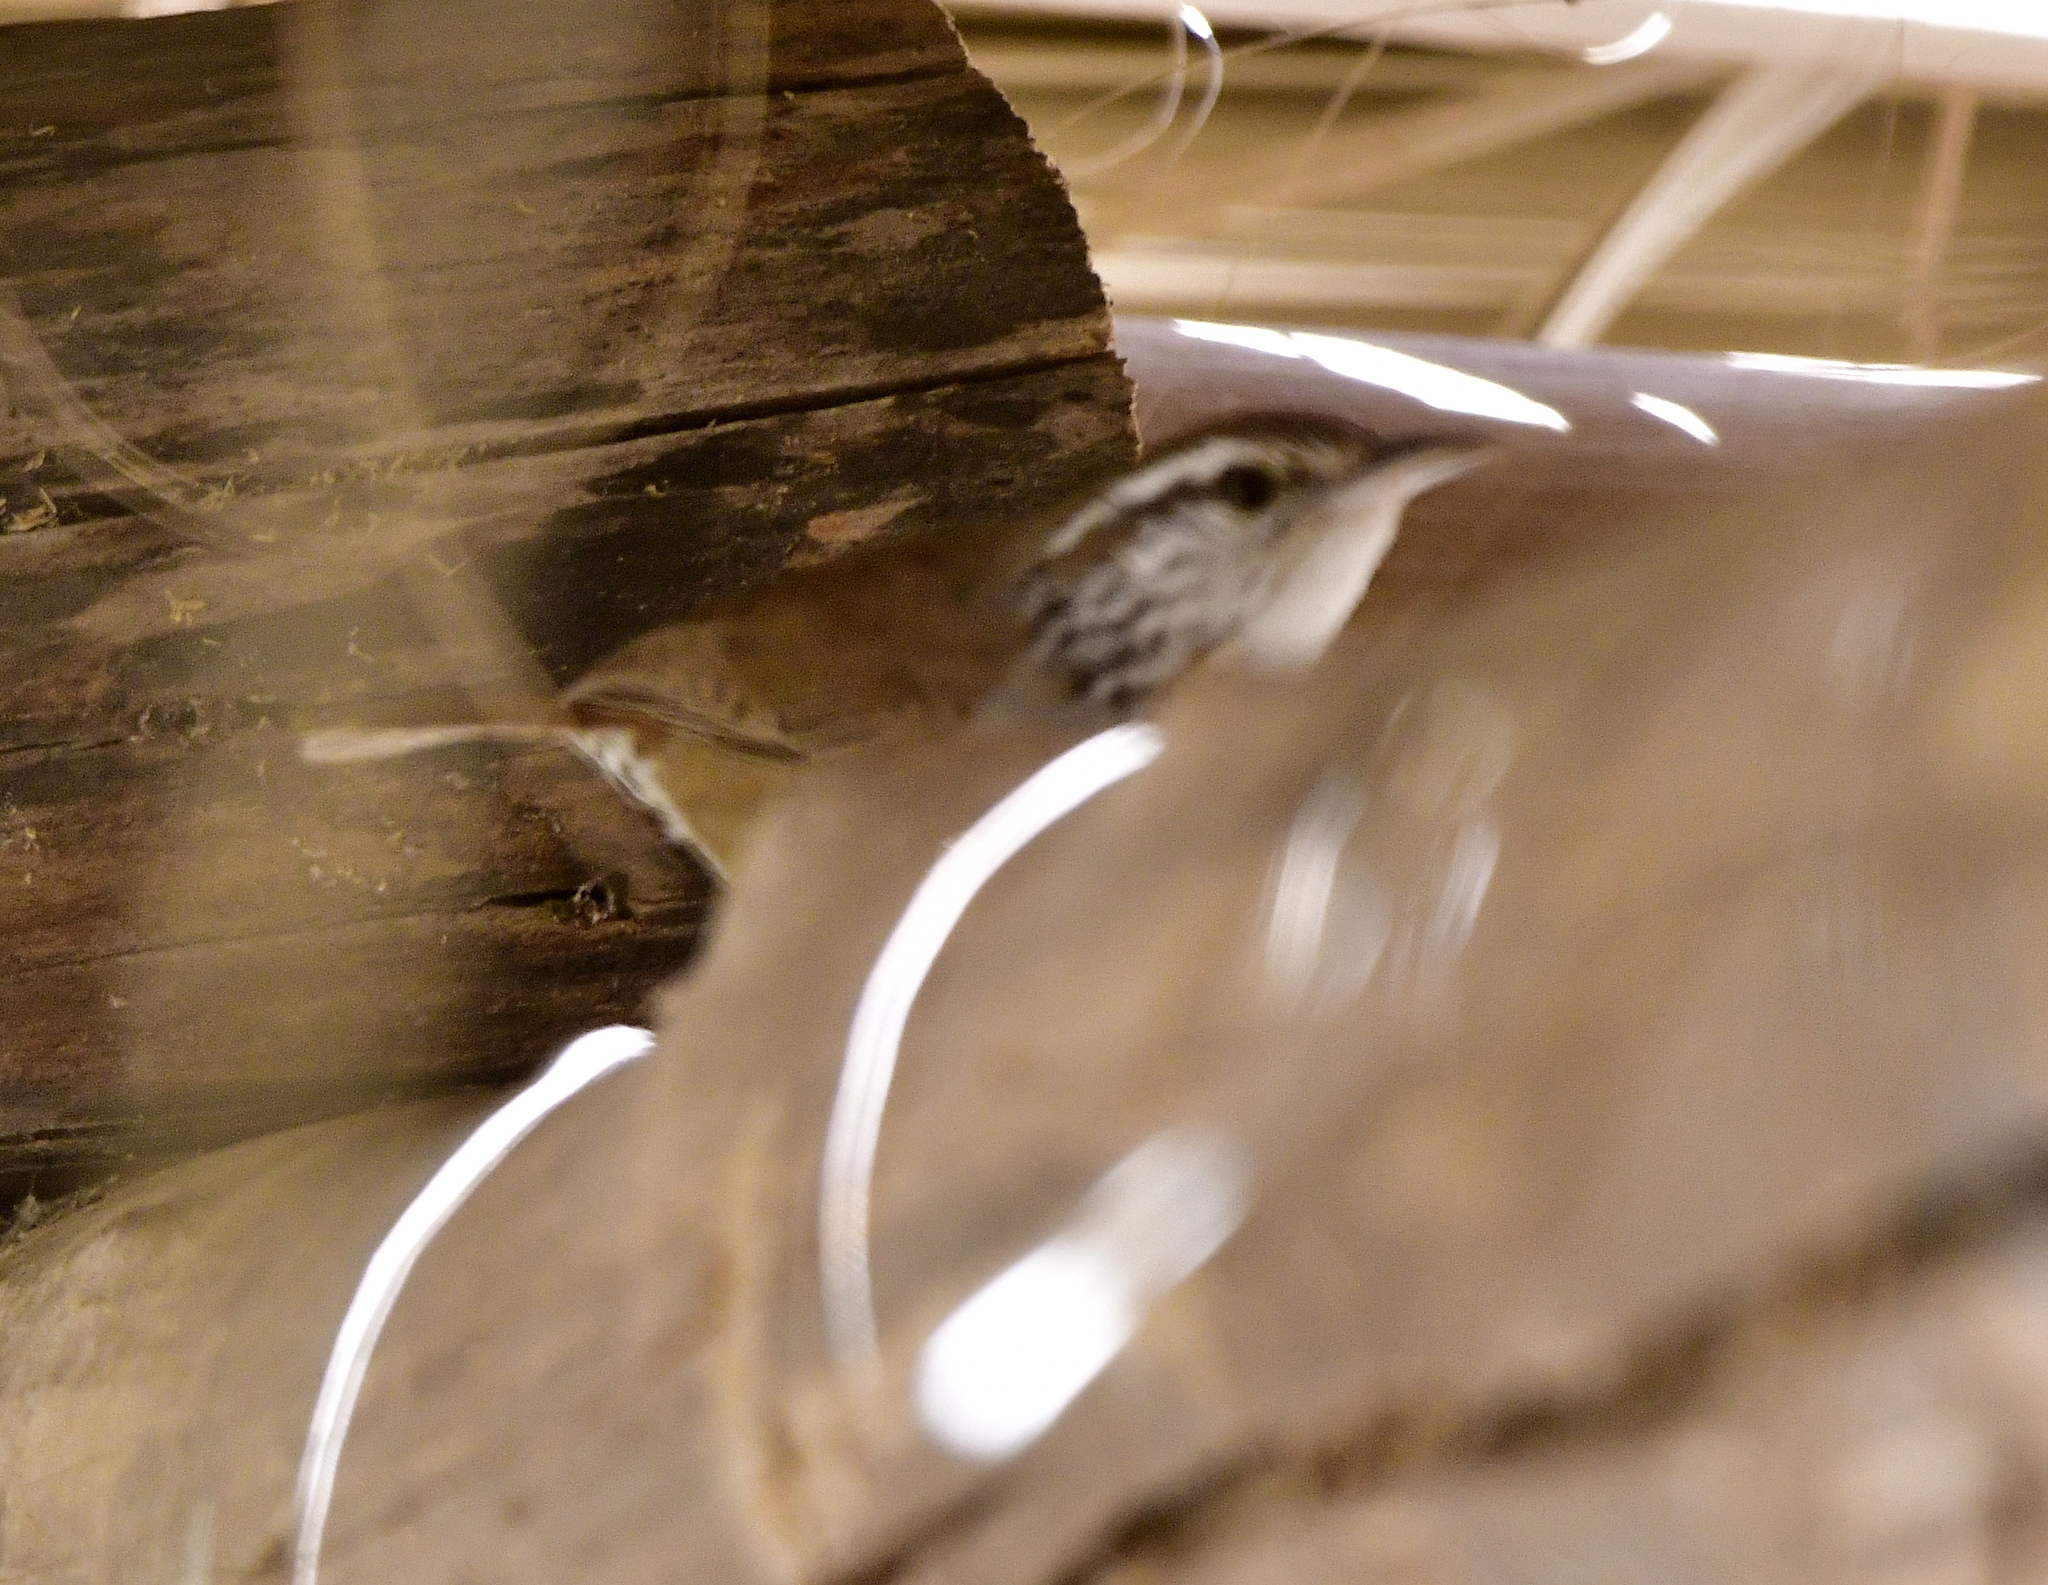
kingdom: Animalia
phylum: Chordata
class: Aves
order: Passeriformes
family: Troglodytidae
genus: Thryophilus
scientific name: Thryophilus sinaloa
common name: Sinaloa wren
